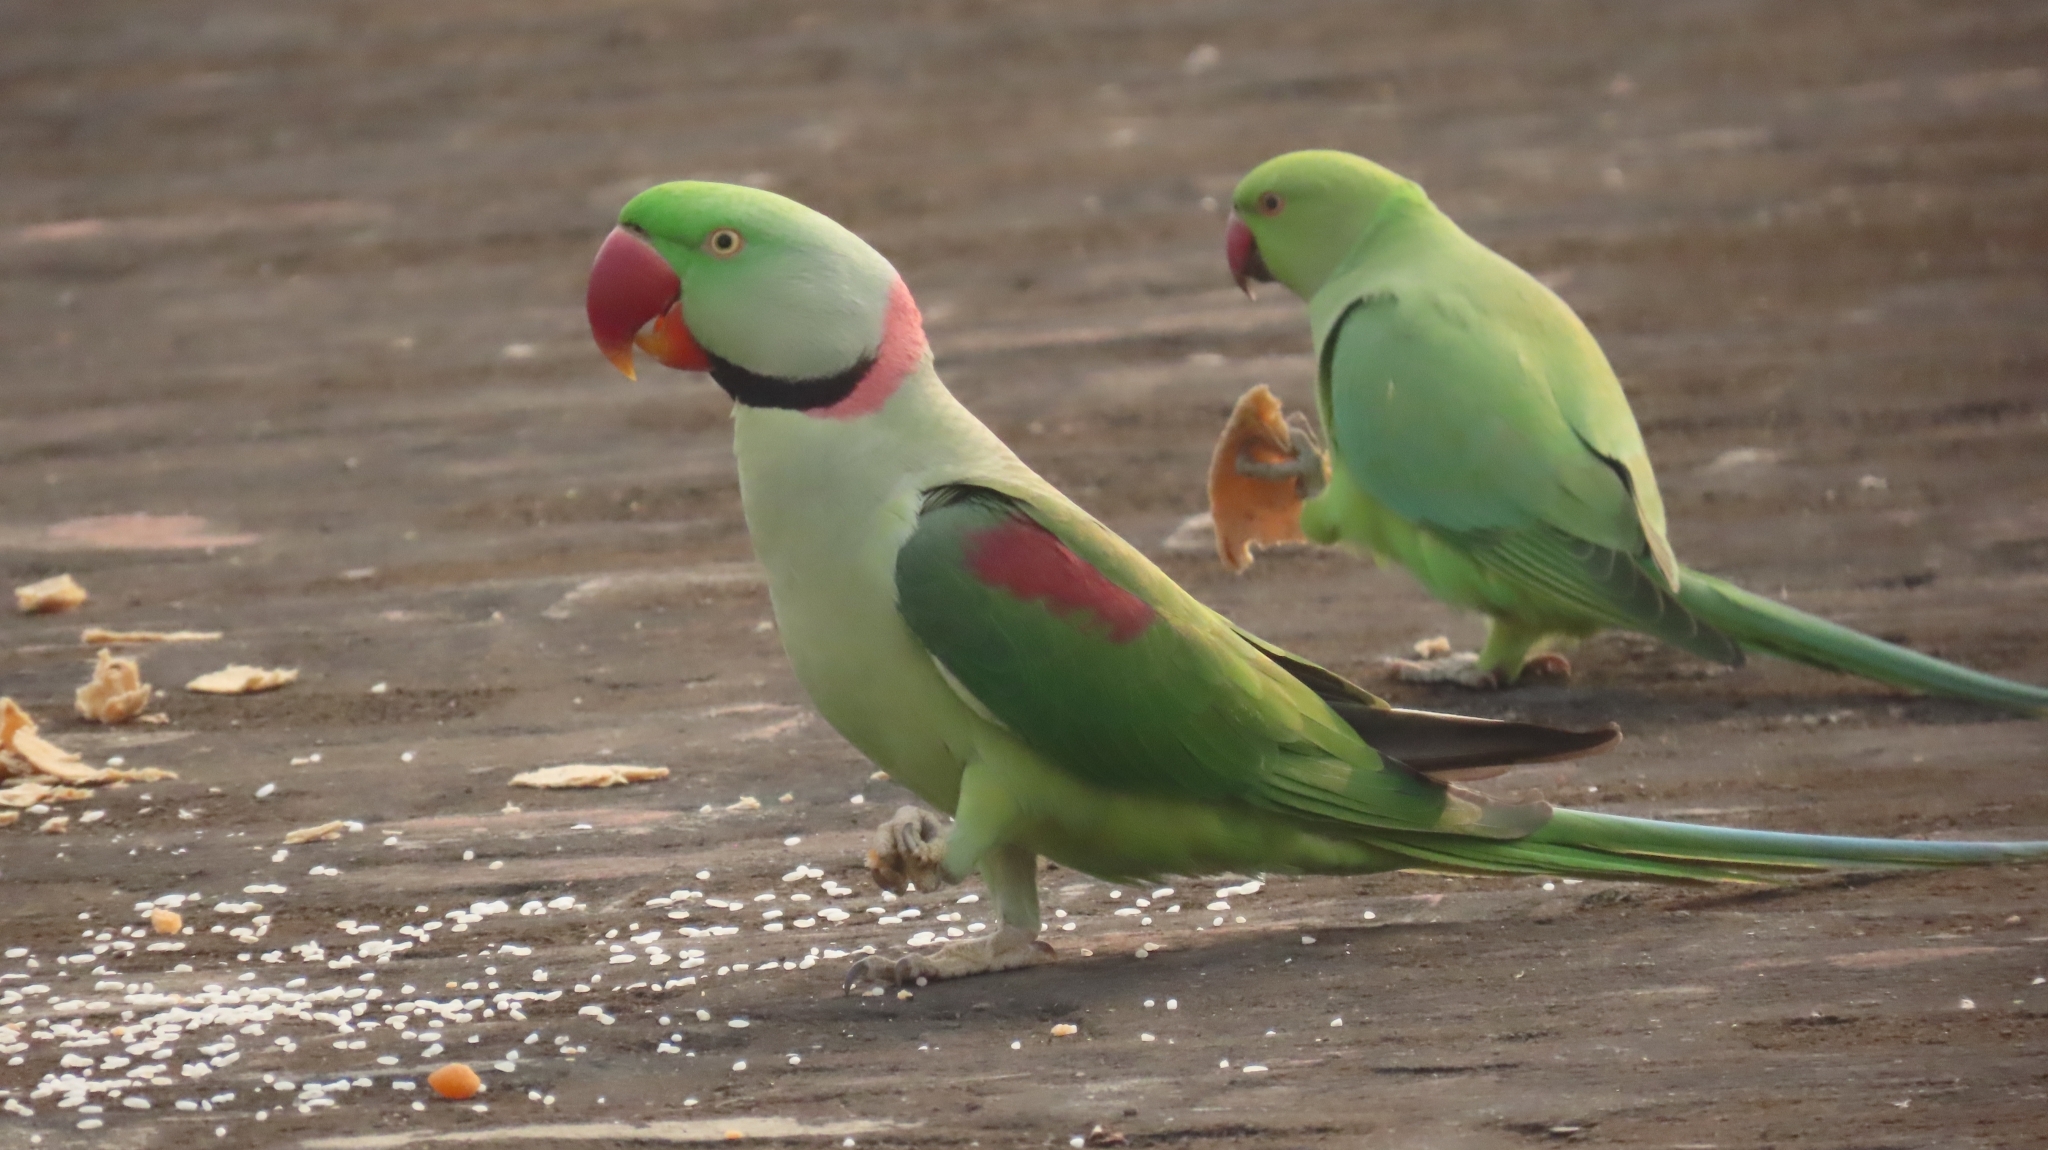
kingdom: Animalia
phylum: Chordata
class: Aves
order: Psittaciformes
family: Psittacidae
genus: Psittacula
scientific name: Psittacula eupatria
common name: Alexandrine parakeet
